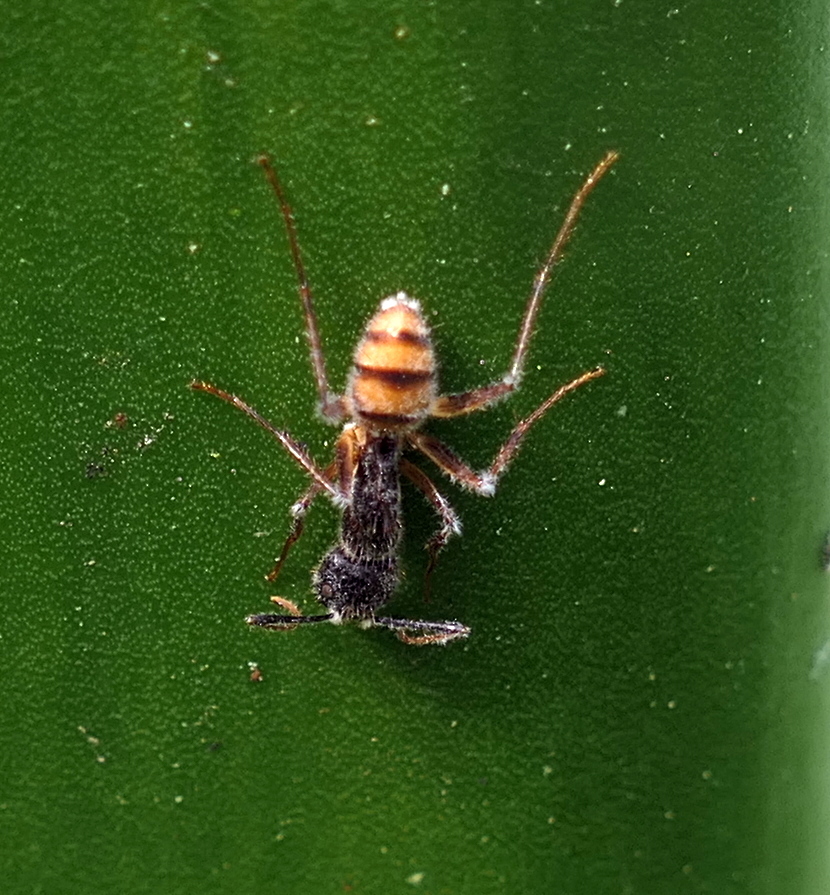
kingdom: Animalia
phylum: Arthropoda
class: Insecta
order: Hymenoptera
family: Formicidae
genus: Camponotus
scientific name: Camponotus atriceps
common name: Florida carpenter ant
